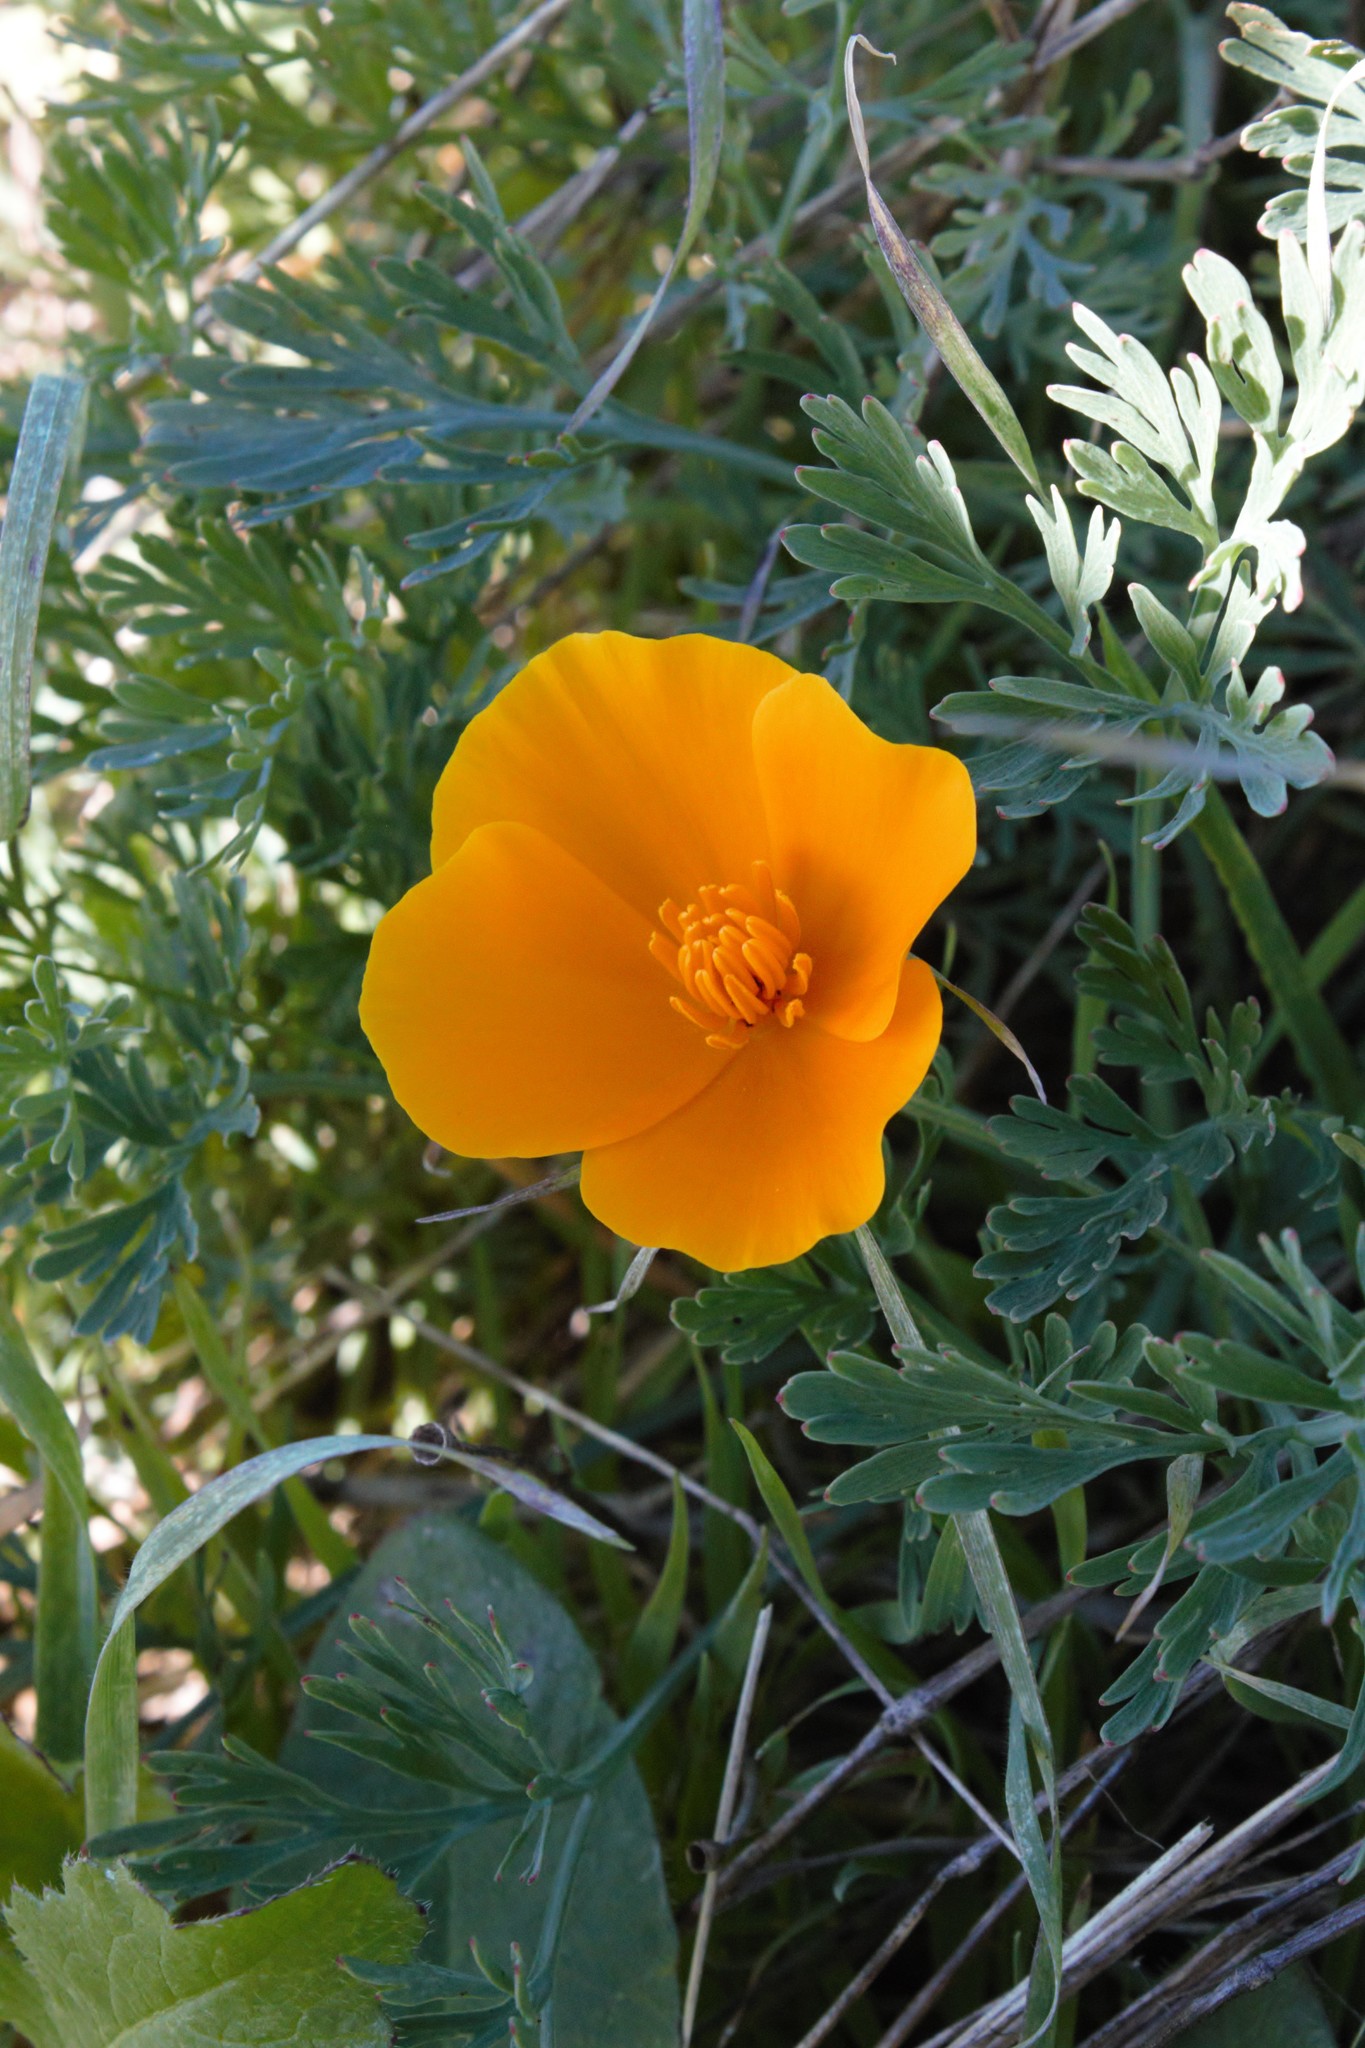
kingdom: Plantae
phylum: Tracheophyta
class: Magnoliopsida
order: Ranunculales
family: Papaveraceae
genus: Eschscholzia
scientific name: Eschscholzia californica
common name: California poppy
